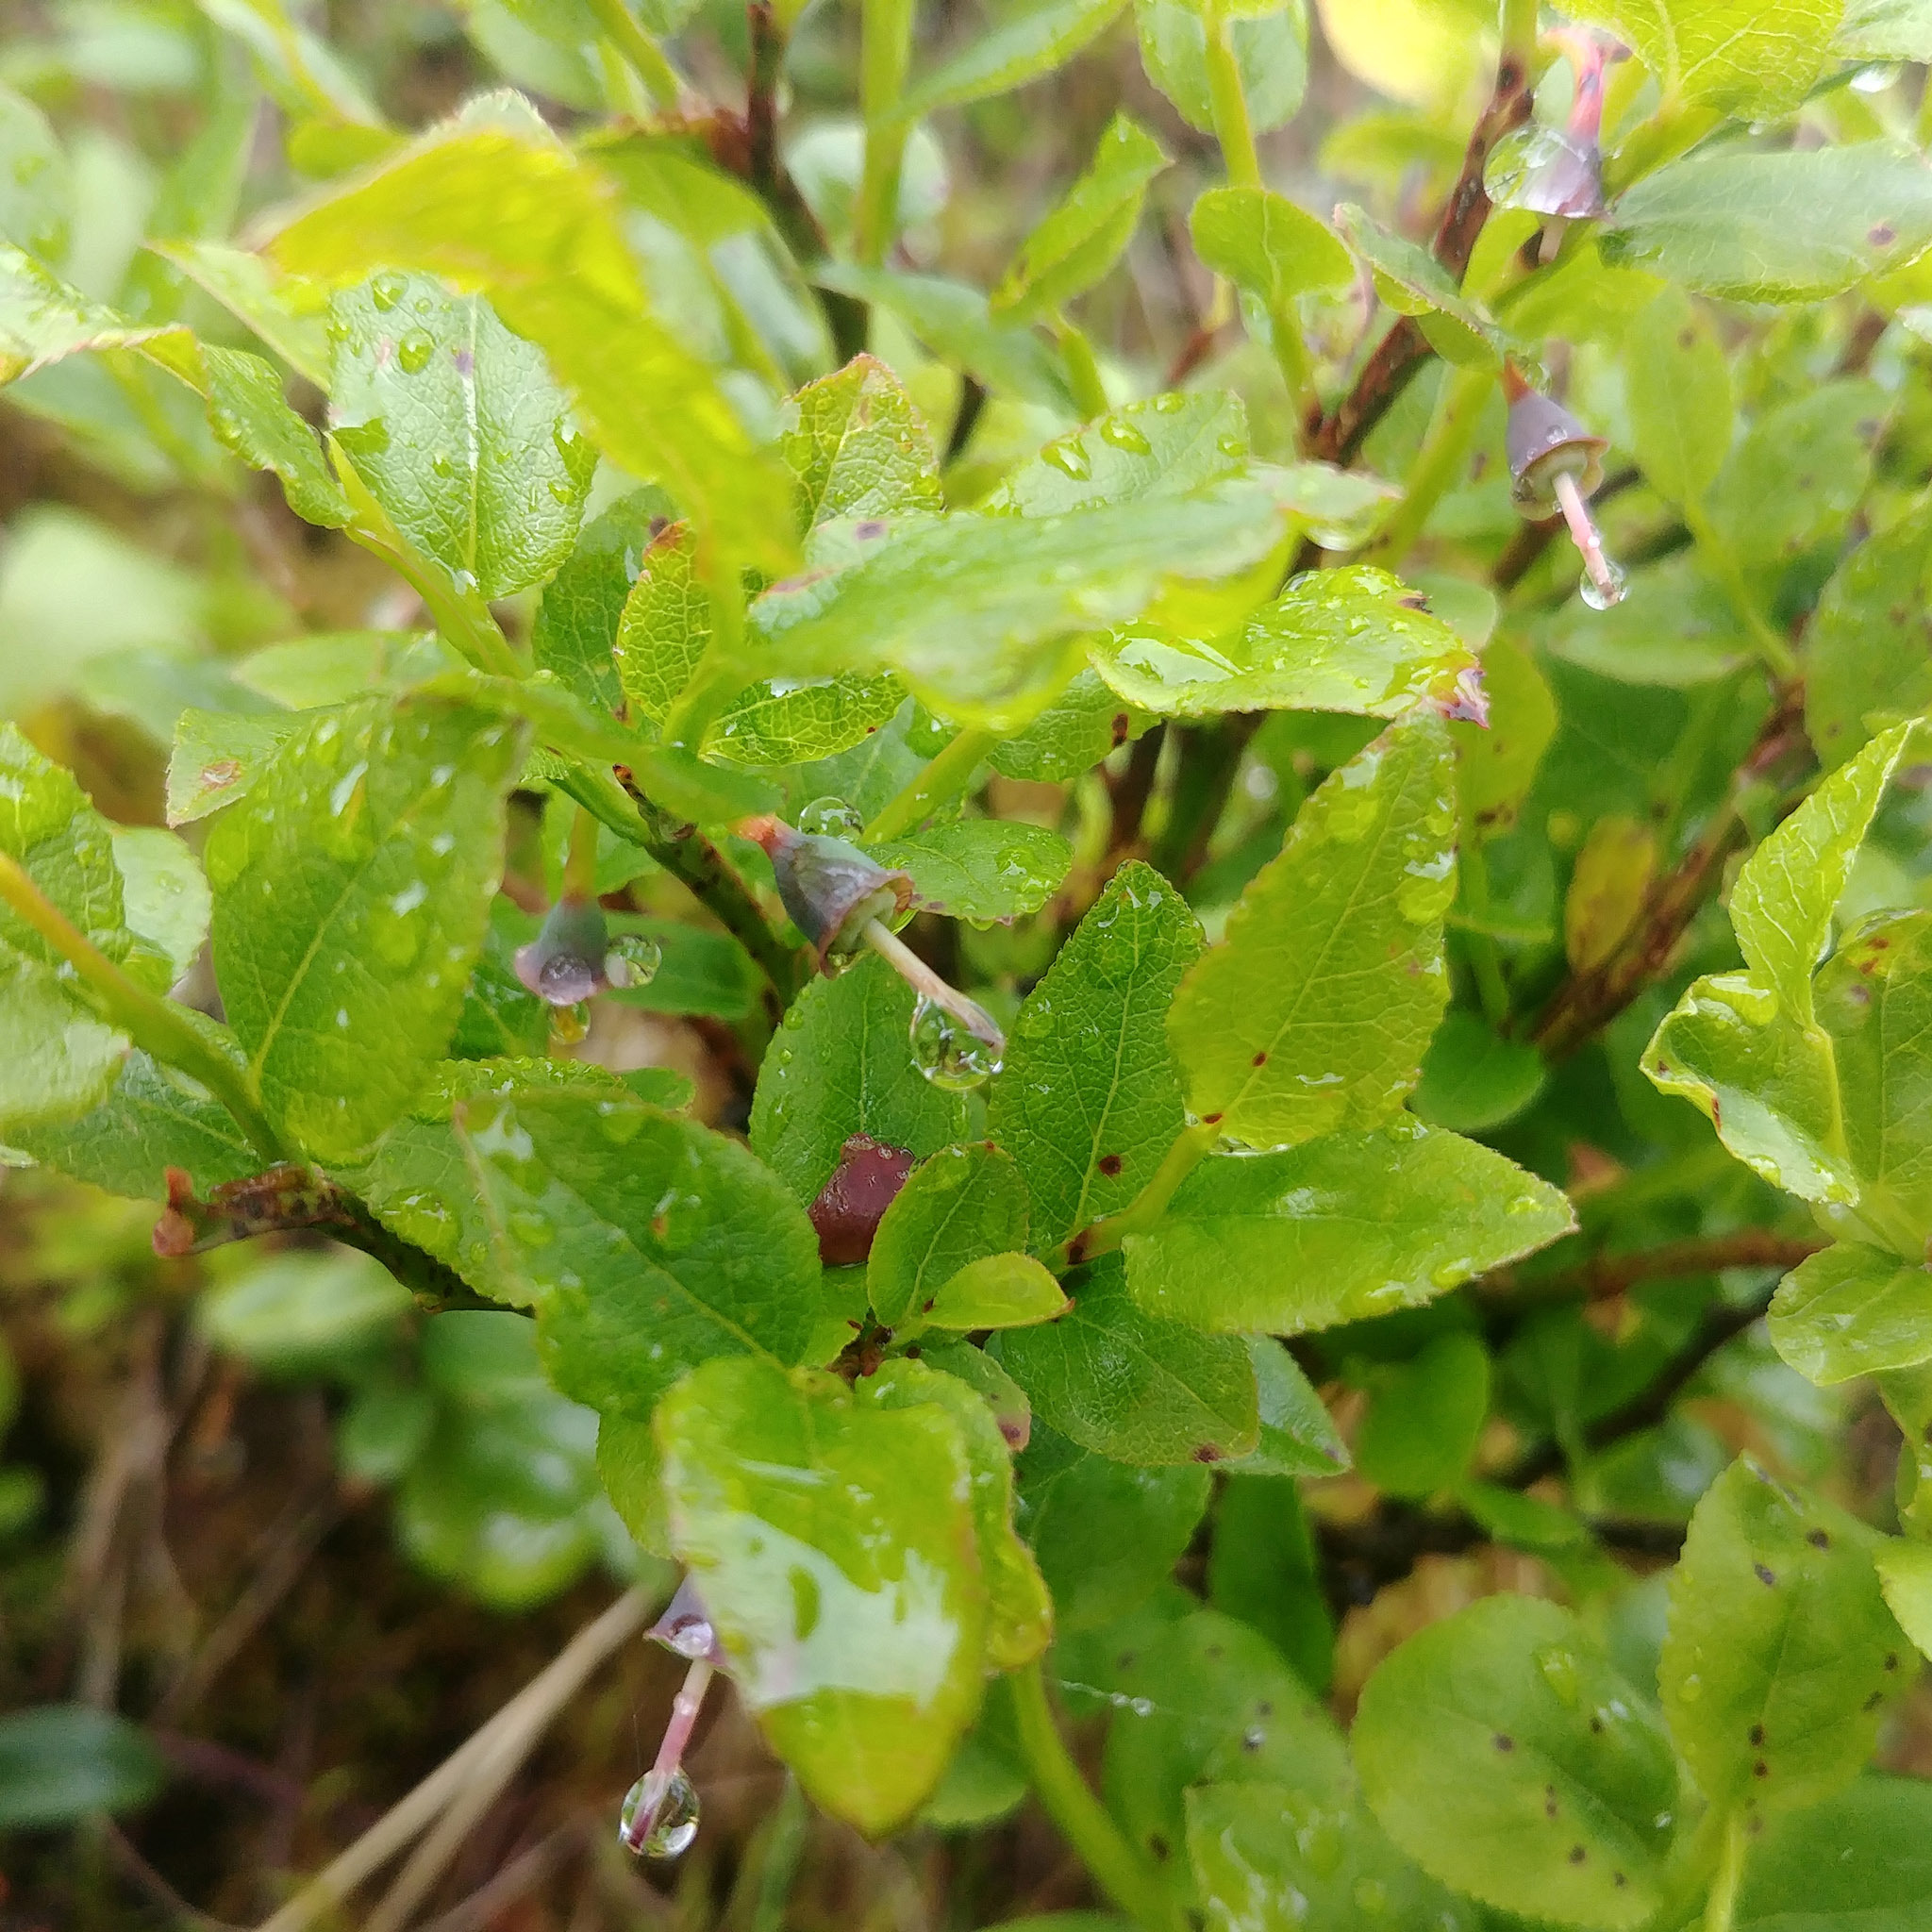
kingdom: Plantae
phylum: Tracheophyta
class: Magnoliopsida
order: Ericales
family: Ericaceae
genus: Vaccinium
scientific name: Vaccinium myrtillus
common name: Bilberry
